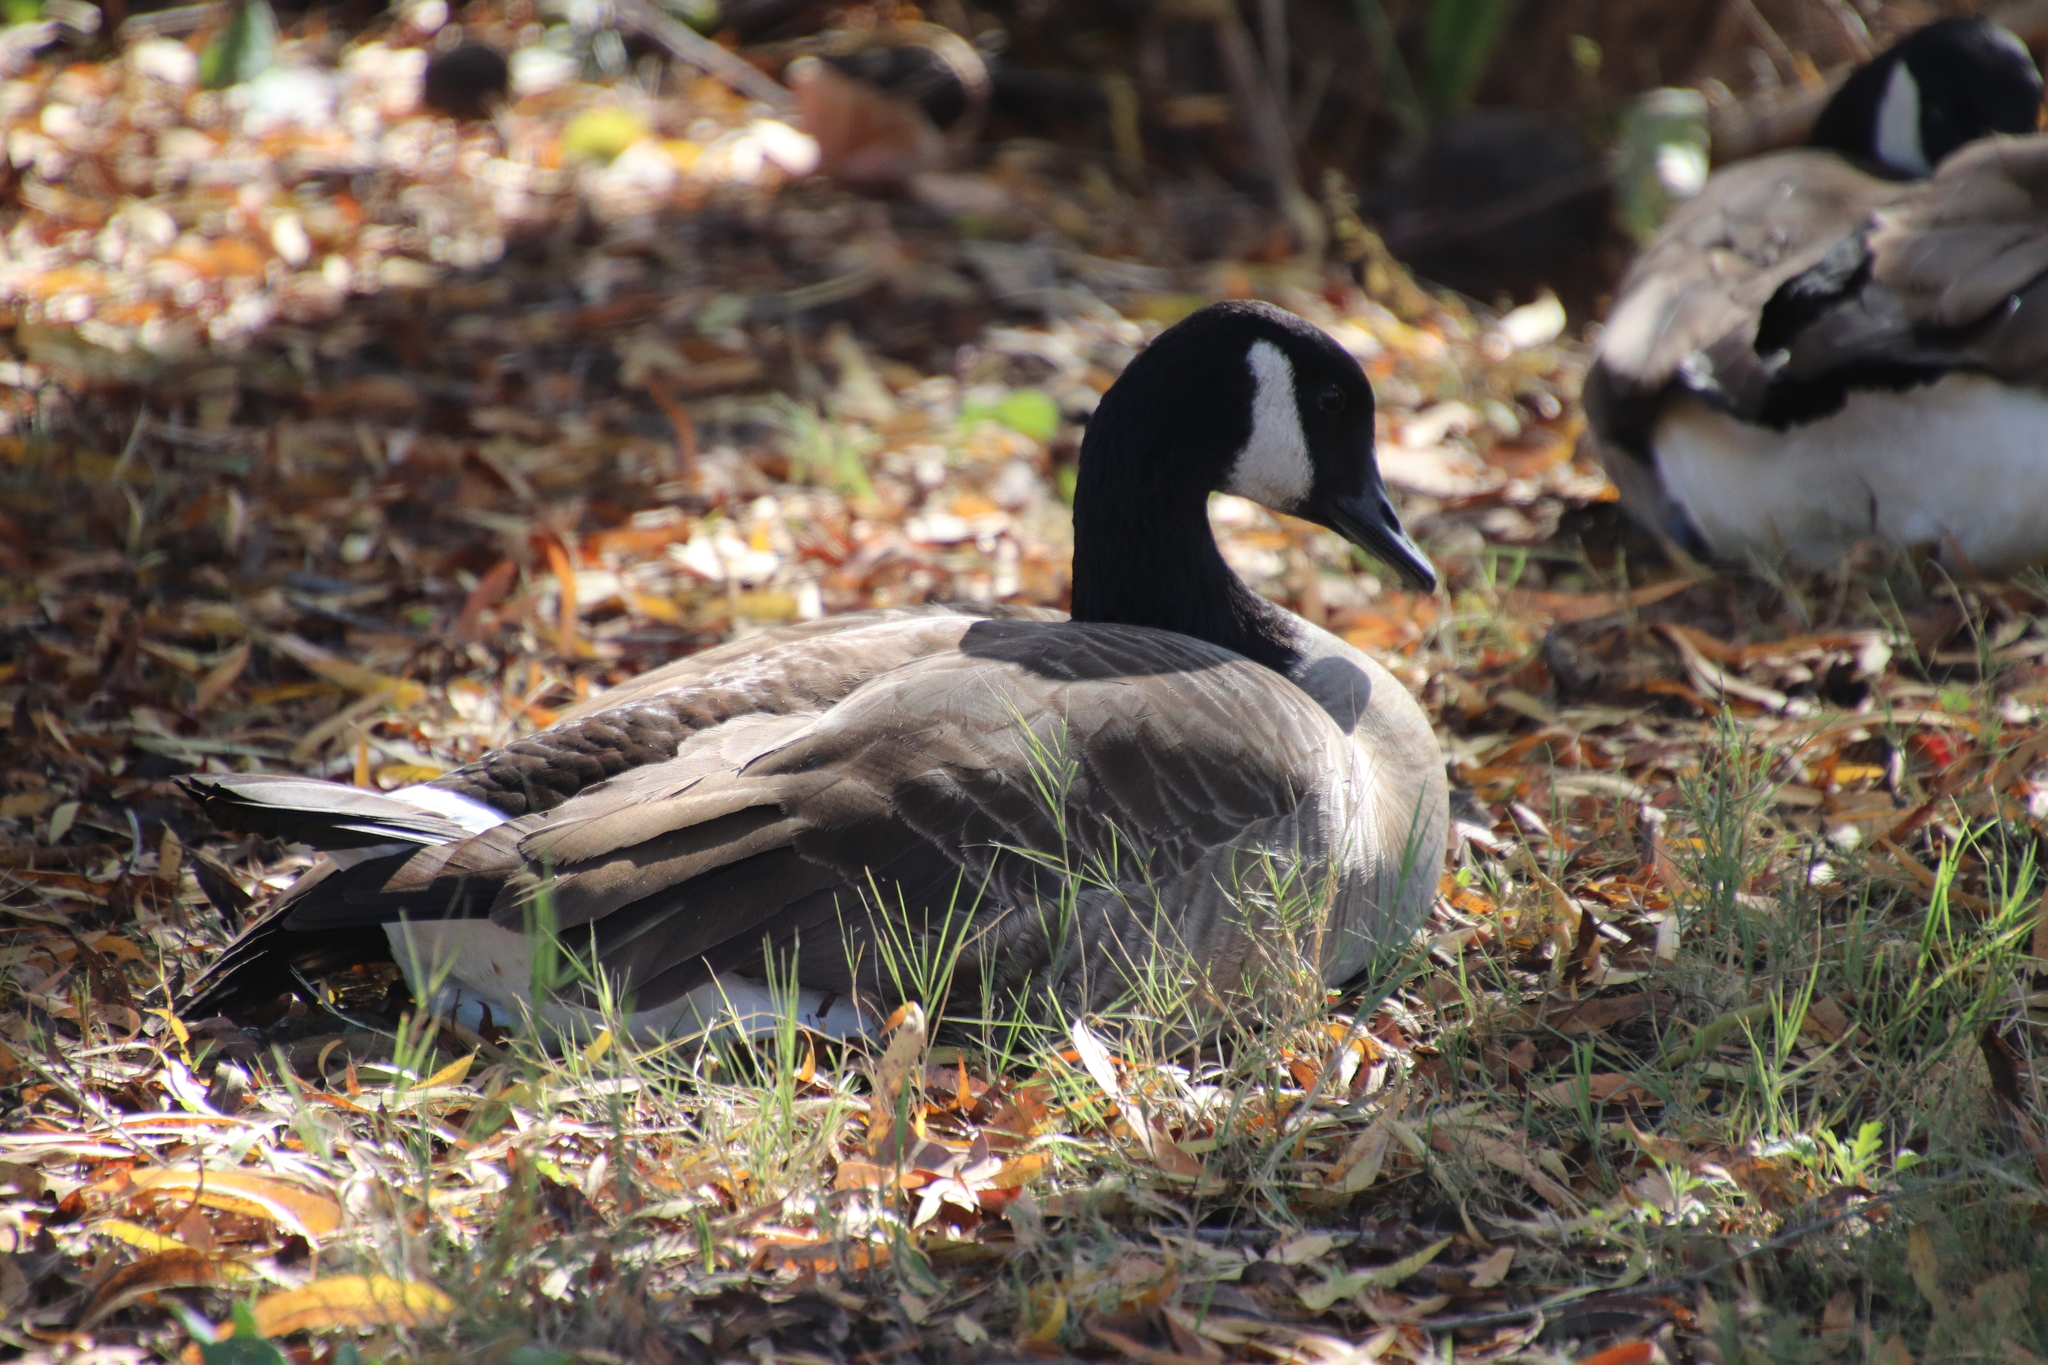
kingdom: Animalia
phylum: Chordata
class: Aves
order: Anseriformes
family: Anatidae
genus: Branta
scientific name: Branta canadensis
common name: Canada goose
